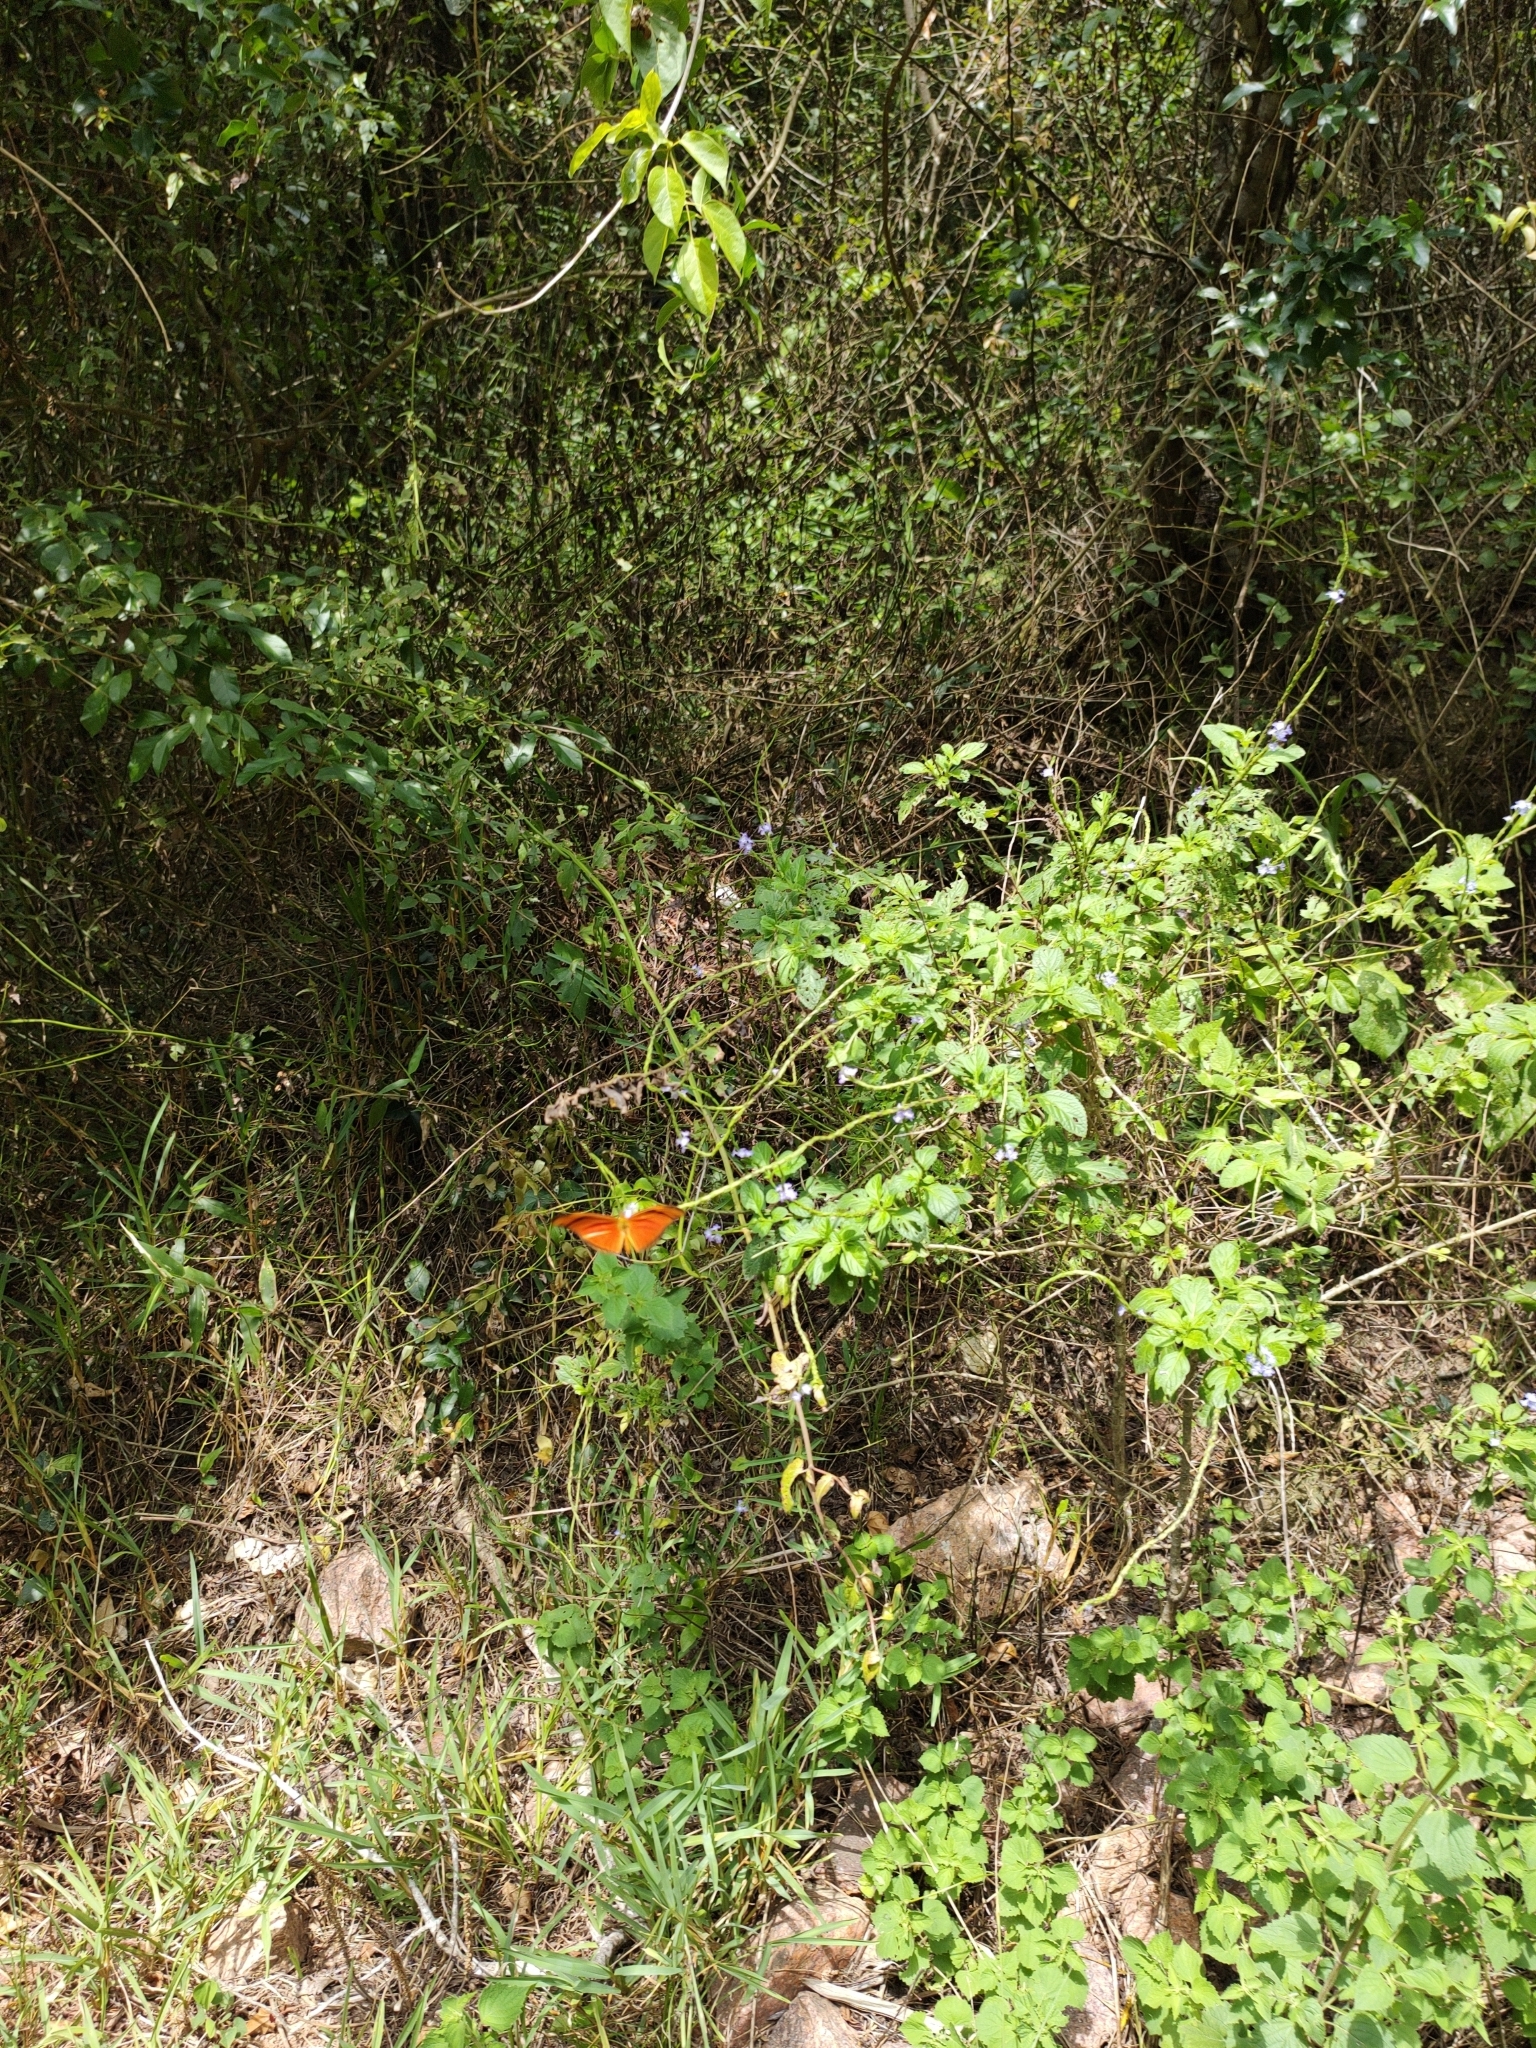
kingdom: Animalia
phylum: Arthropoda
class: Insecta
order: Lepidoptera
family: Nymphalidae
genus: Dryas
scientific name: Dryas iulia
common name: Flambeau
